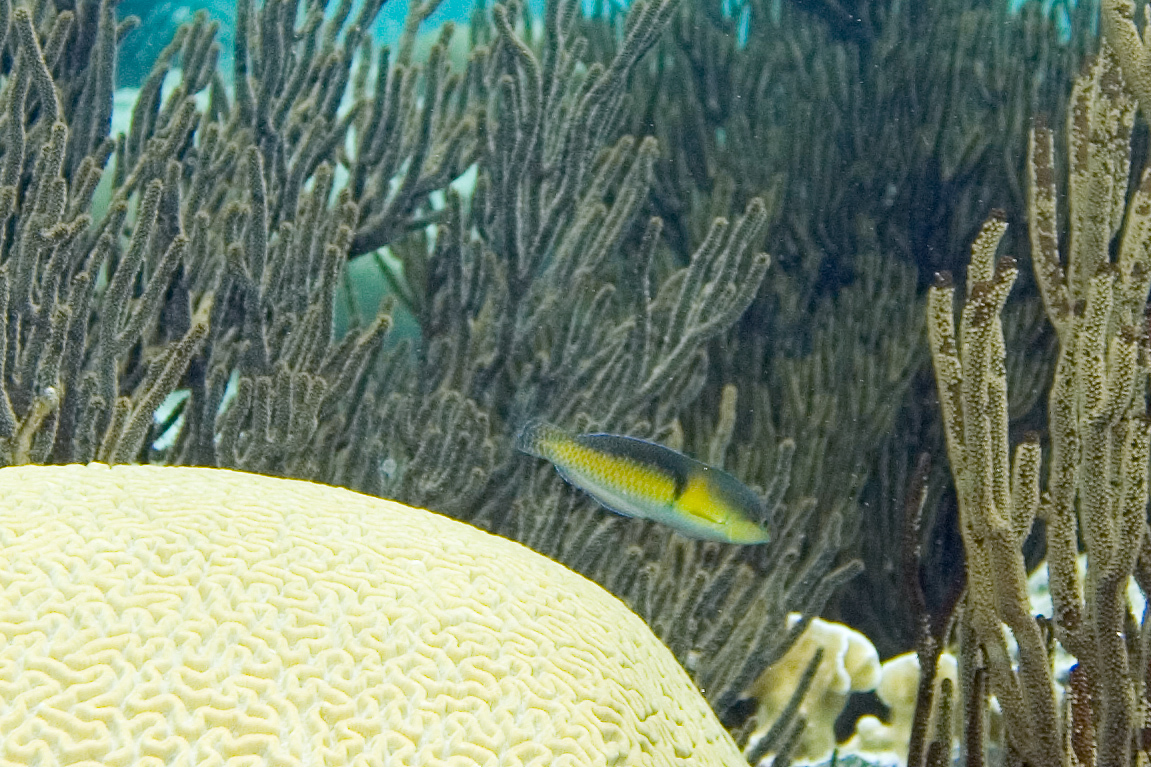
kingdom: Animalia
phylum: Cnidaria
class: Anthozoa
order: Malacalcyonacea
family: Plexauridae
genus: Plexaura
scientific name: Plexaura homomalla
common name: Black sea rod
